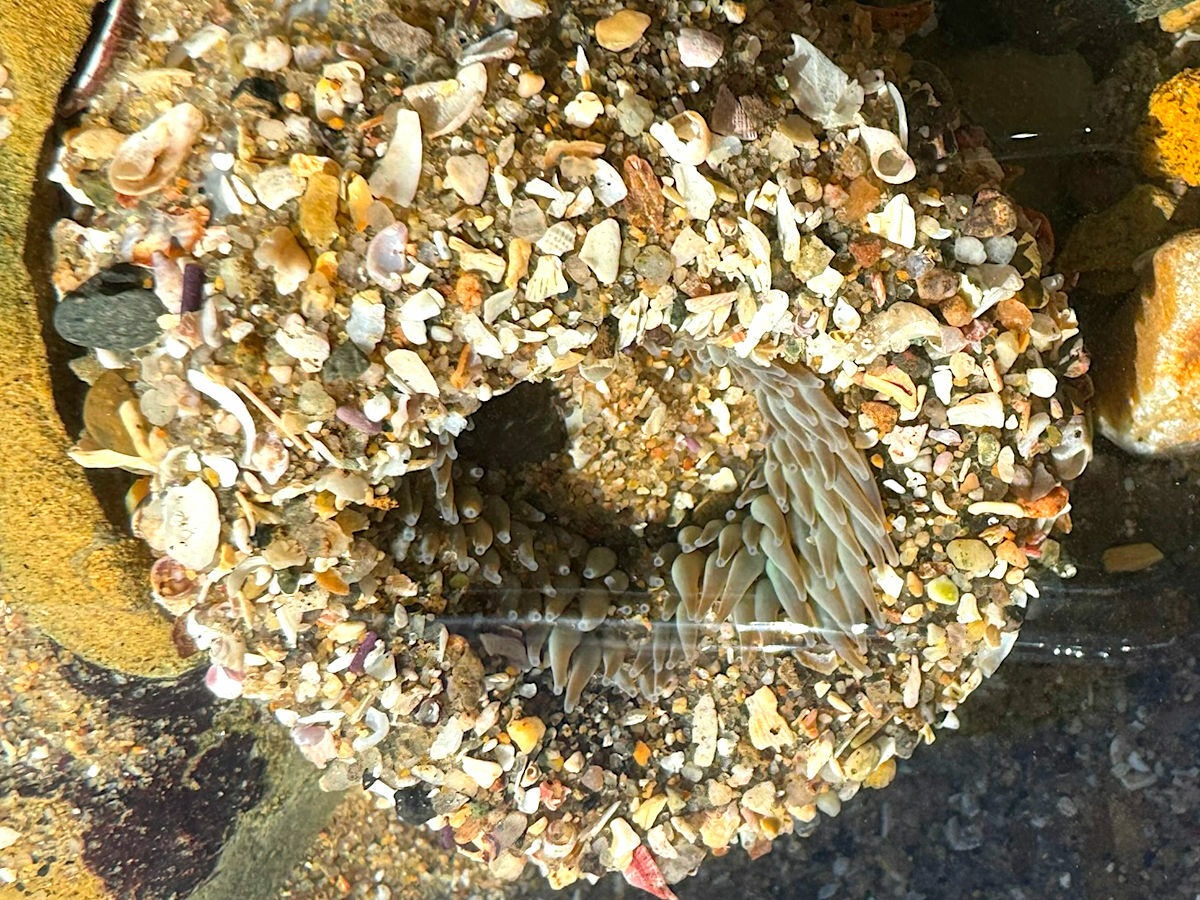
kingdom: Animalia
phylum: Cnidaria
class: Anthozoa
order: Actiniaria
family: Actiniidae
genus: Anthopleura
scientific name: Anthopleura sola
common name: Sun anemone
